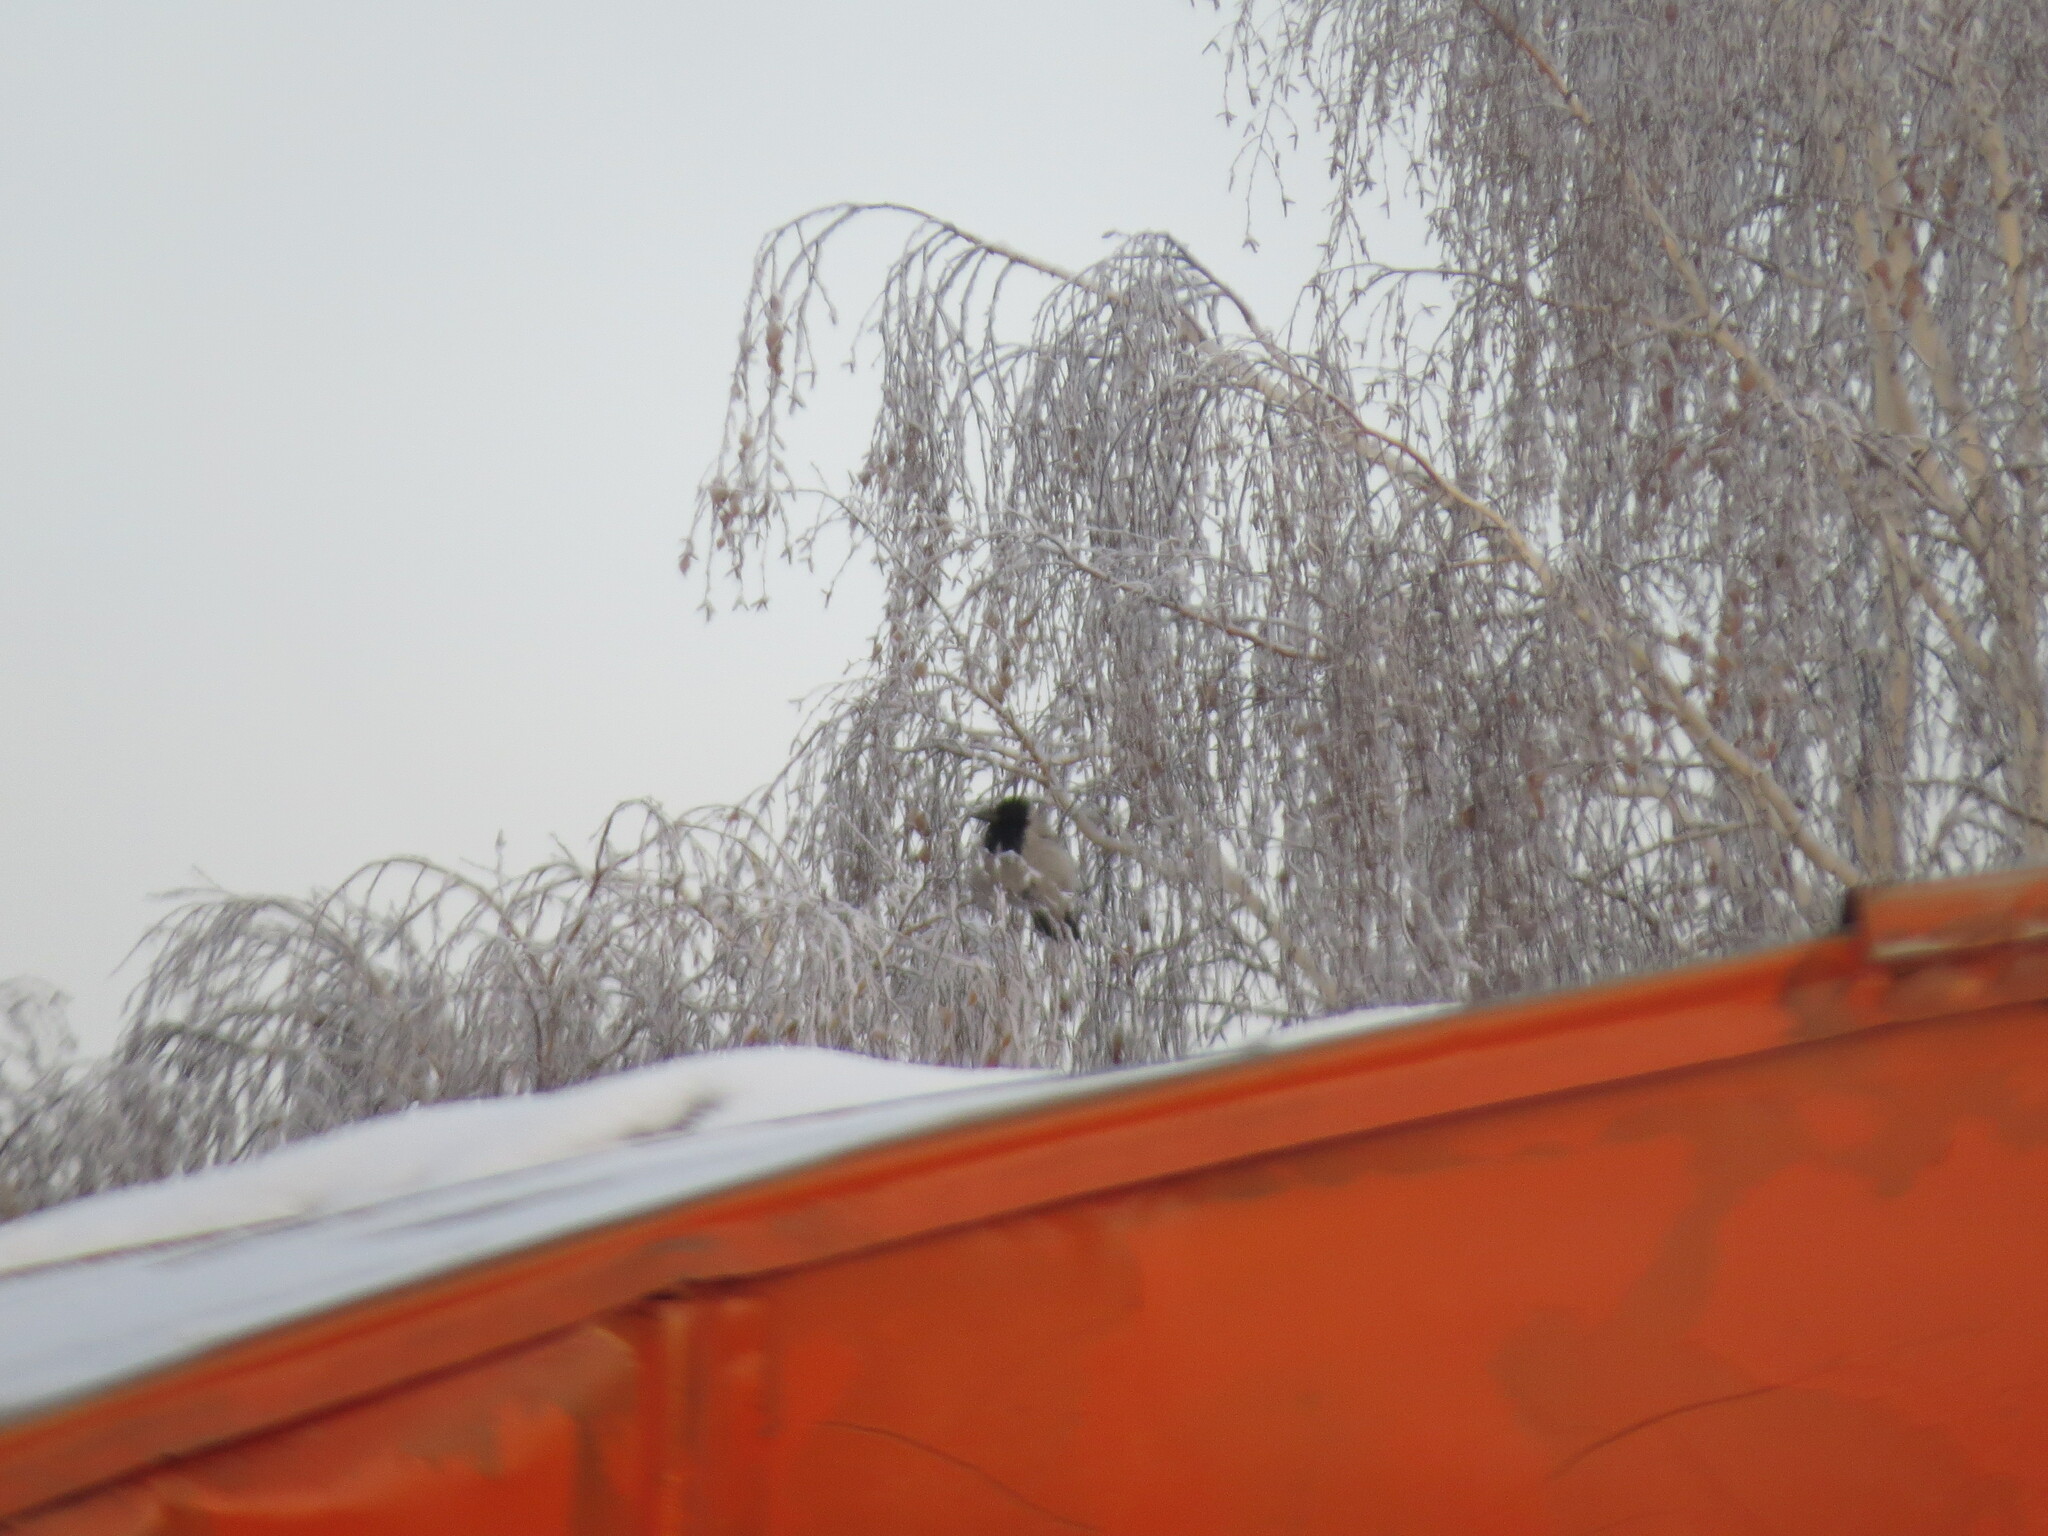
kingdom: Animalia
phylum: Chordata
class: Aves
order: Passeriformes
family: Corvidae
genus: Corvus
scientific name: Corvus cornix
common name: Hooded crow
